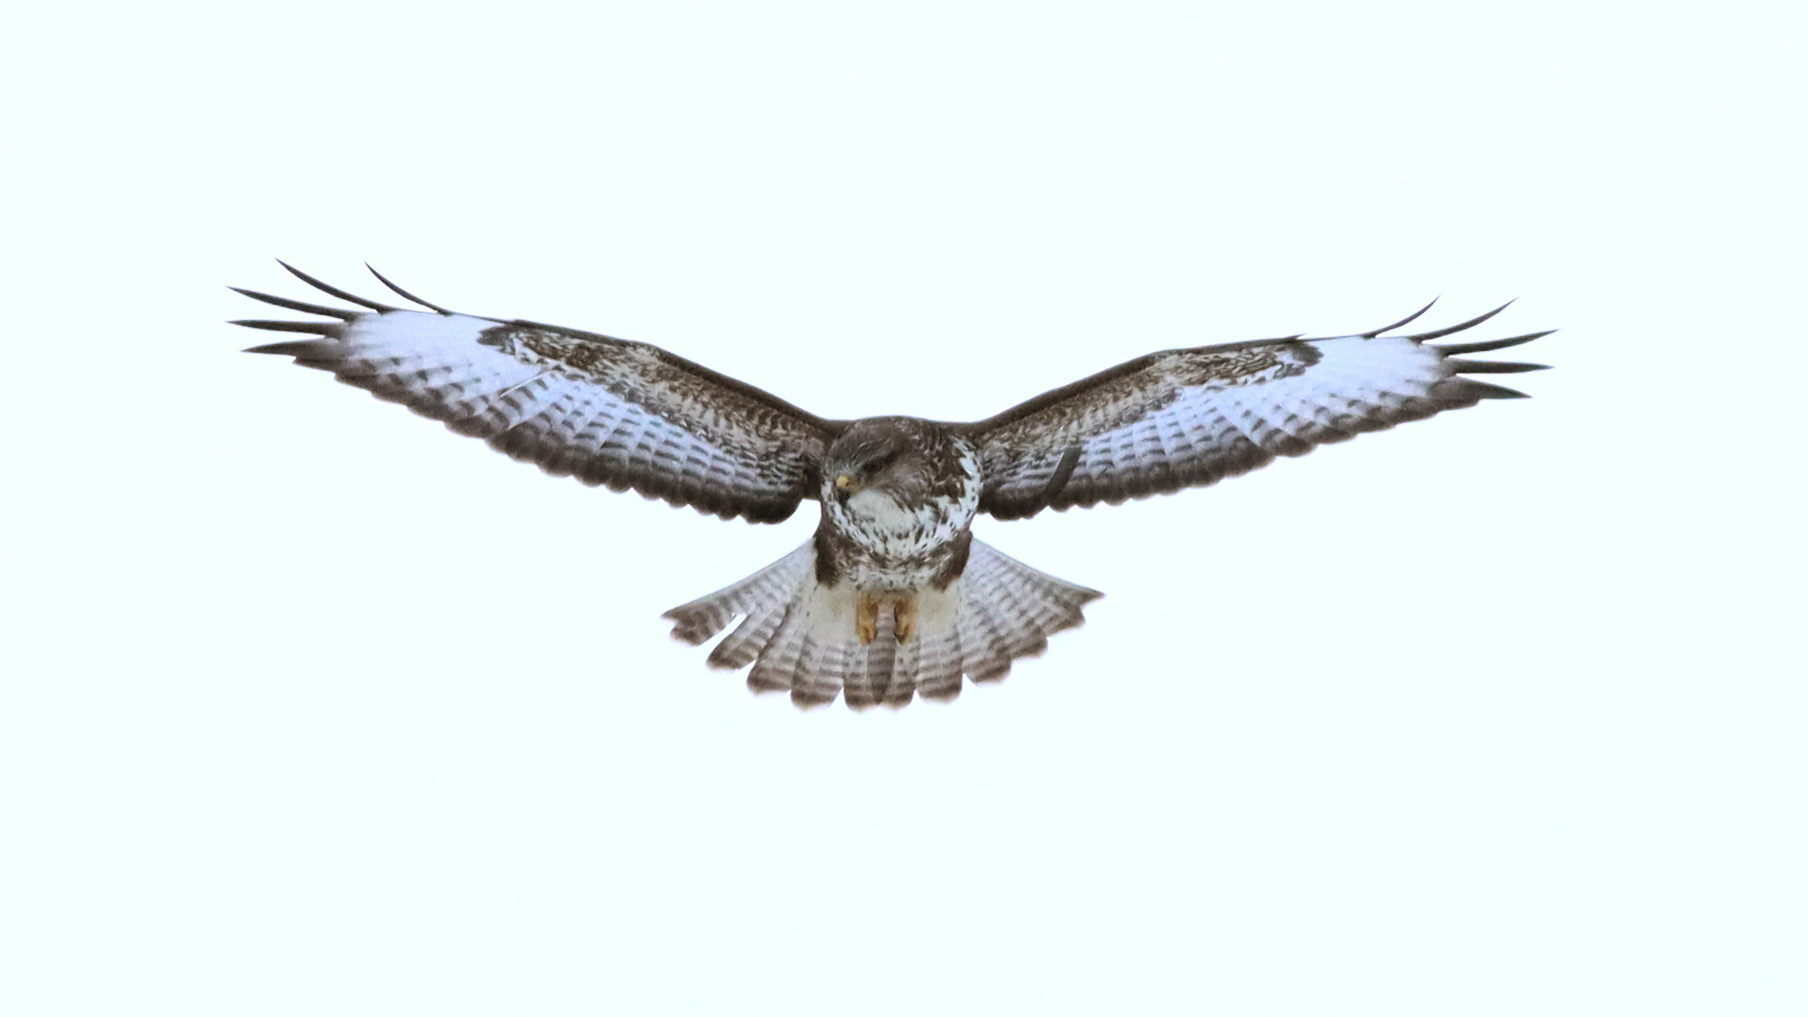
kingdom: Animalia
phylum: Chordata
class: Aves
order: Accipitriformes
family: Accipitridae
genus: Buteo
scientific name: Buteo buteo
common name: Common buzzard
